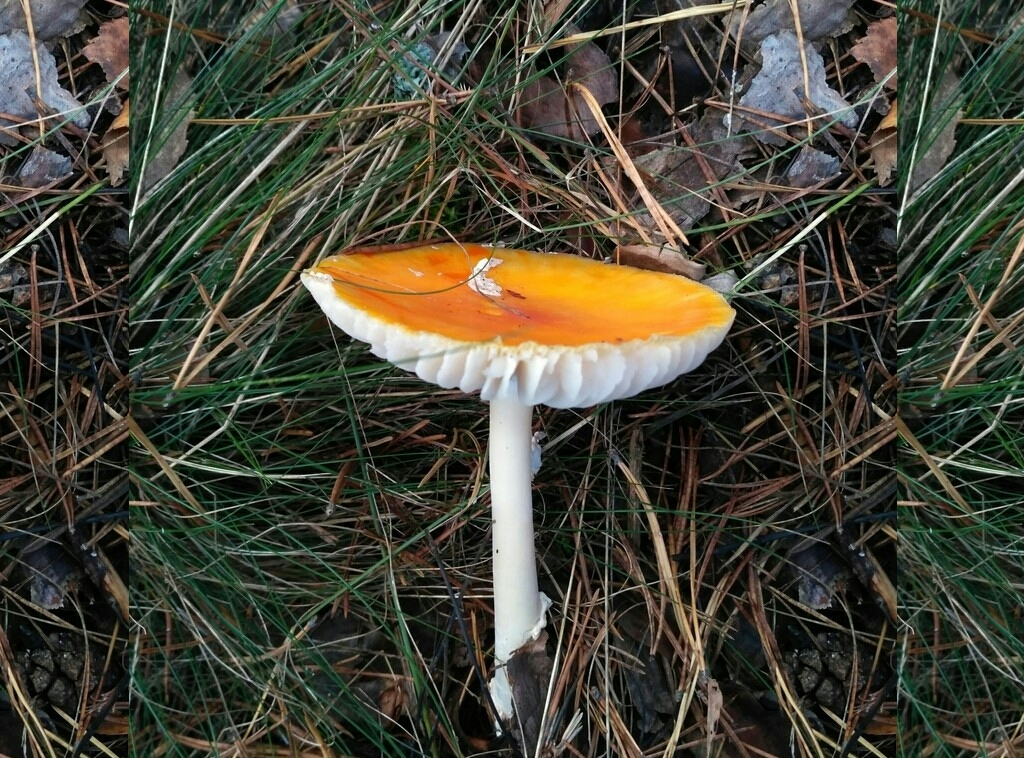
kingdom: Fungi
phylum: Basidiomycota
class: Agaricomycetes
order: Agaricales
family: Amanitaceae
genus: Amanita
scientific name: Amanita muscaria
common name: Fly agaric
